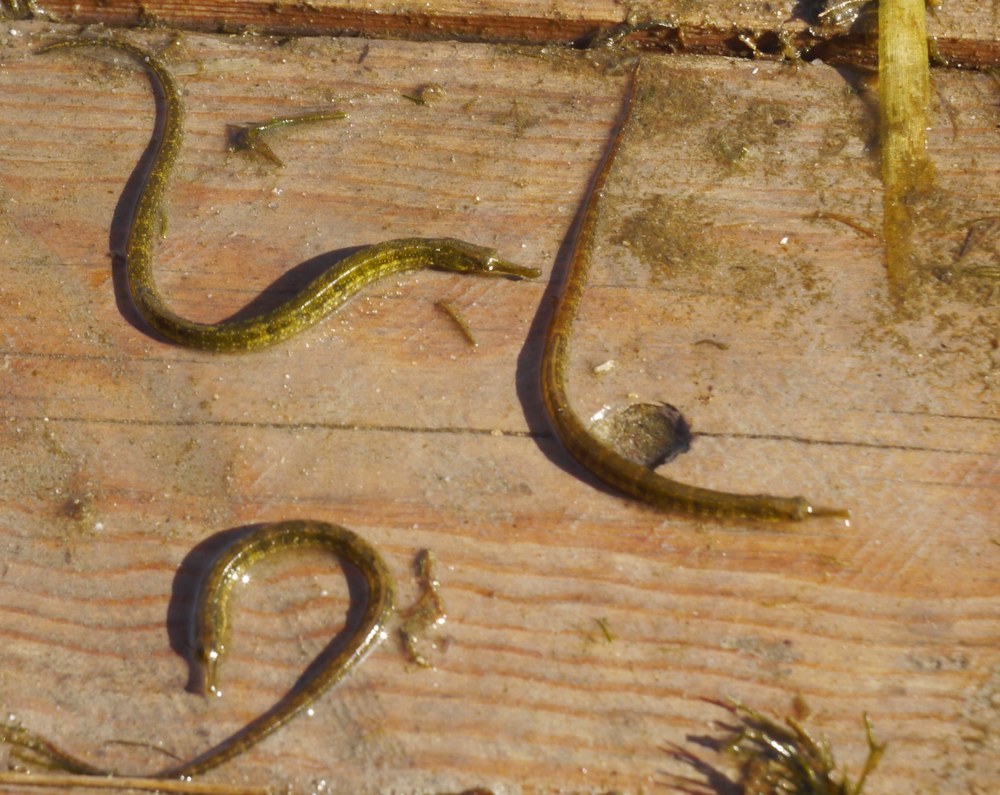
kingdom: Animalia
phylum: Chordata
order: Syngnathiformes
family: Syngnathidae
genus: Syngnathus
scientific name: Syngnathus abaster
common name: Black-striped pipefish
